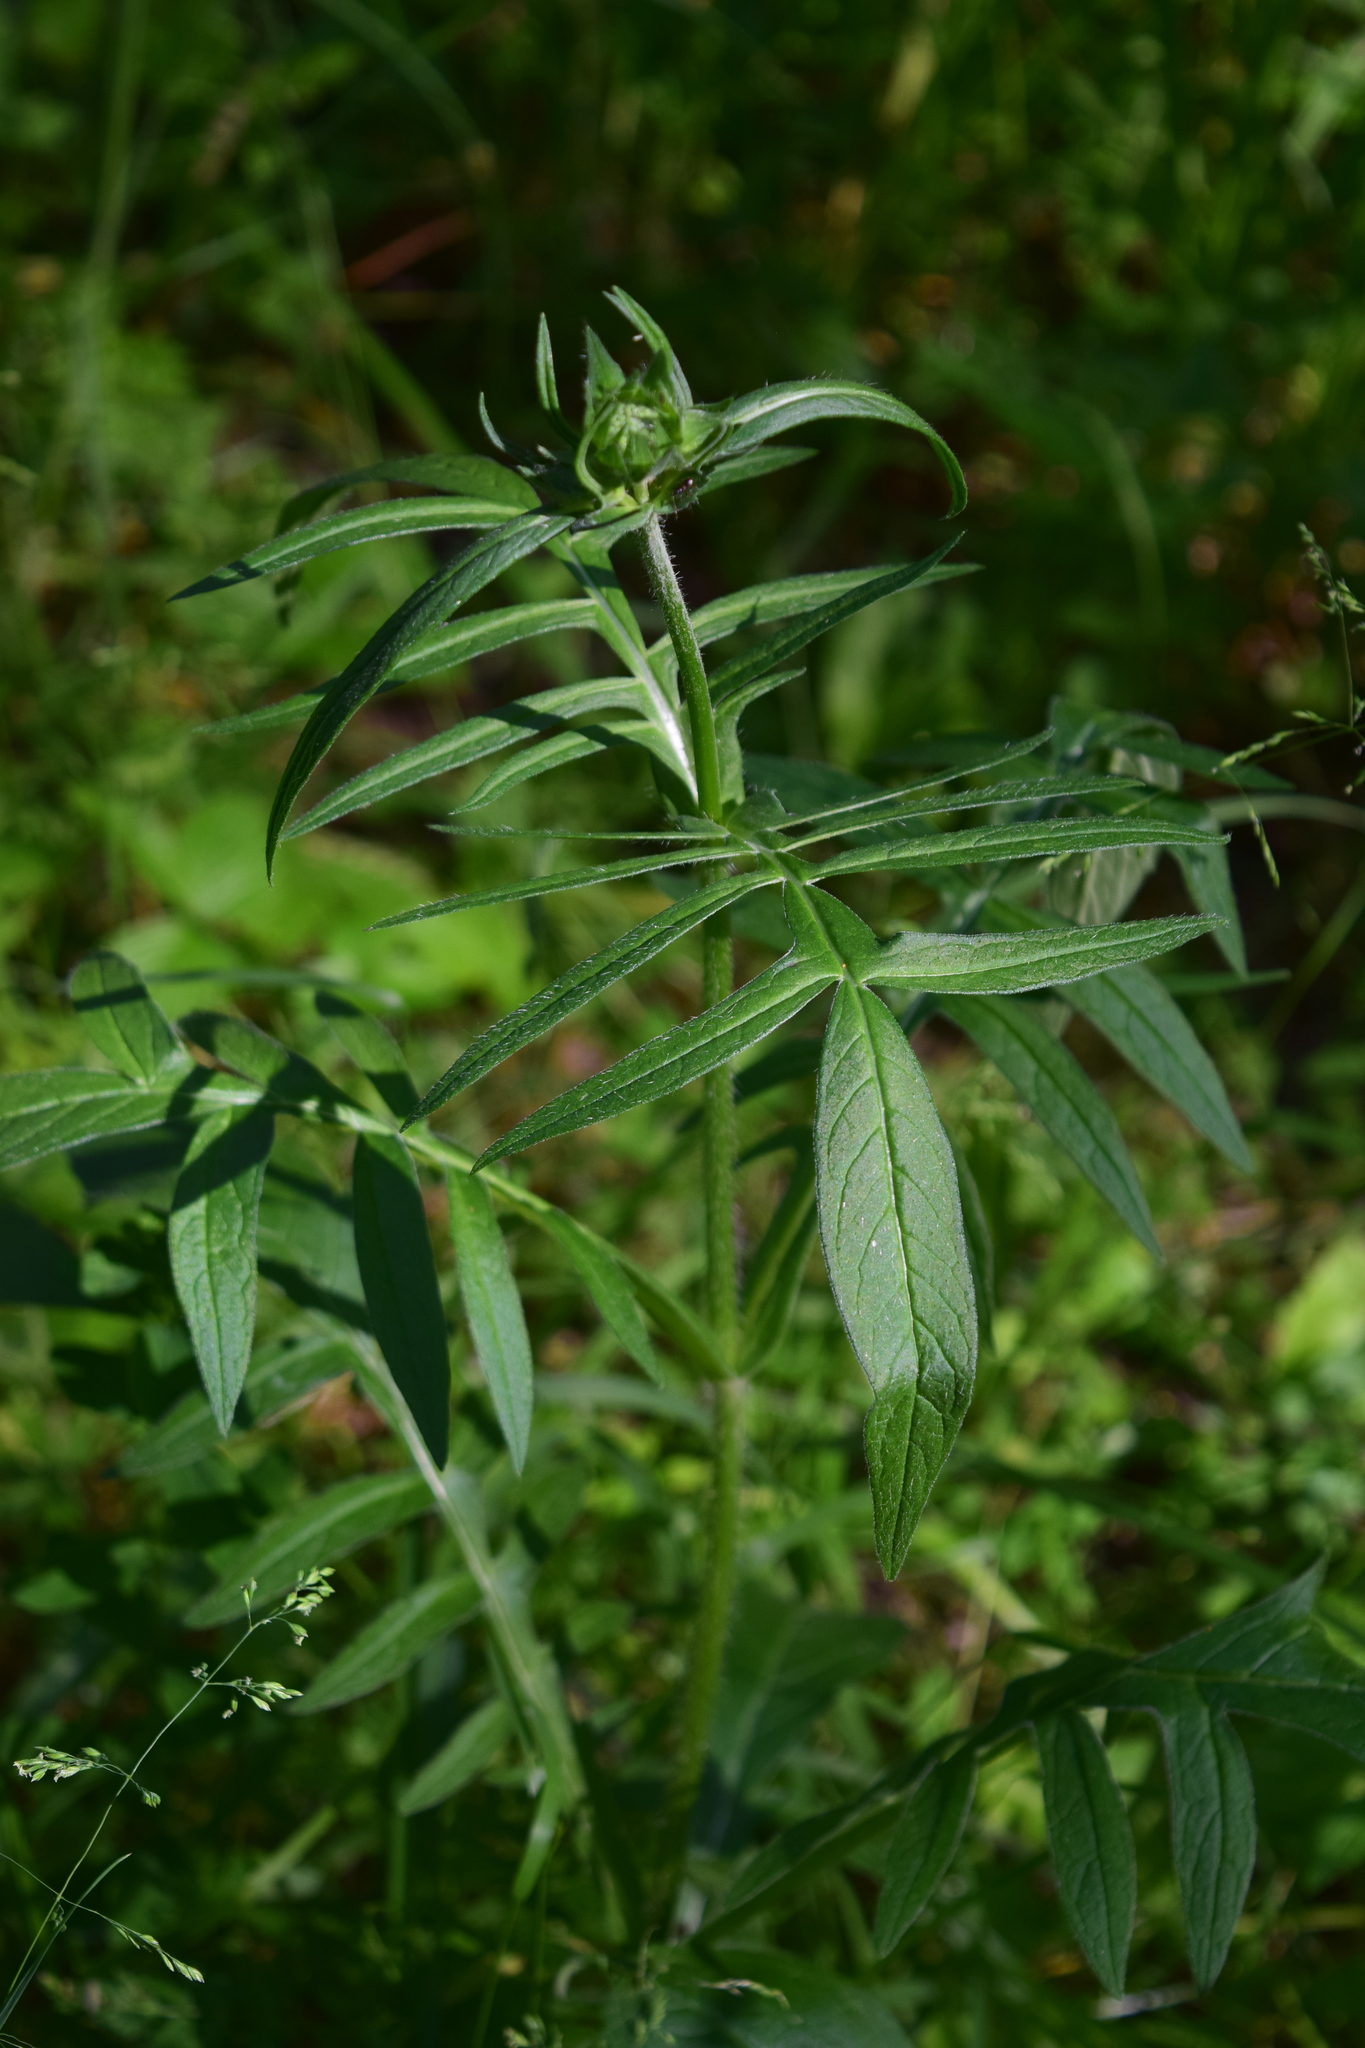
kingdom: Plantae
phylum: Tracheophyta
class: Magnoliopsida
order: Dipsacales
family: Caprifoliaceae
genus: Knautia
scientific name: Knautia arvensis
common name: Field scabiosa
